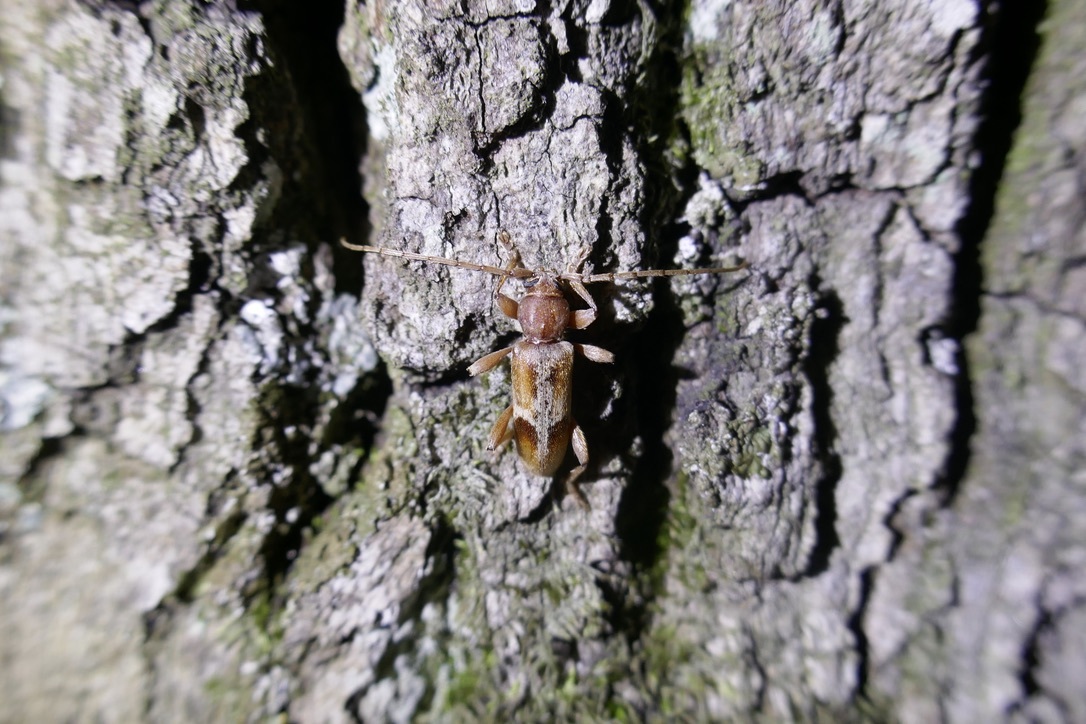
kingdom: Animalia
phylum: Arthropoda
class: Insecta
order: Coleoptera
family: Cerambycidae
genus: Trichoferus
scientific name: Trichoferus pallidus
